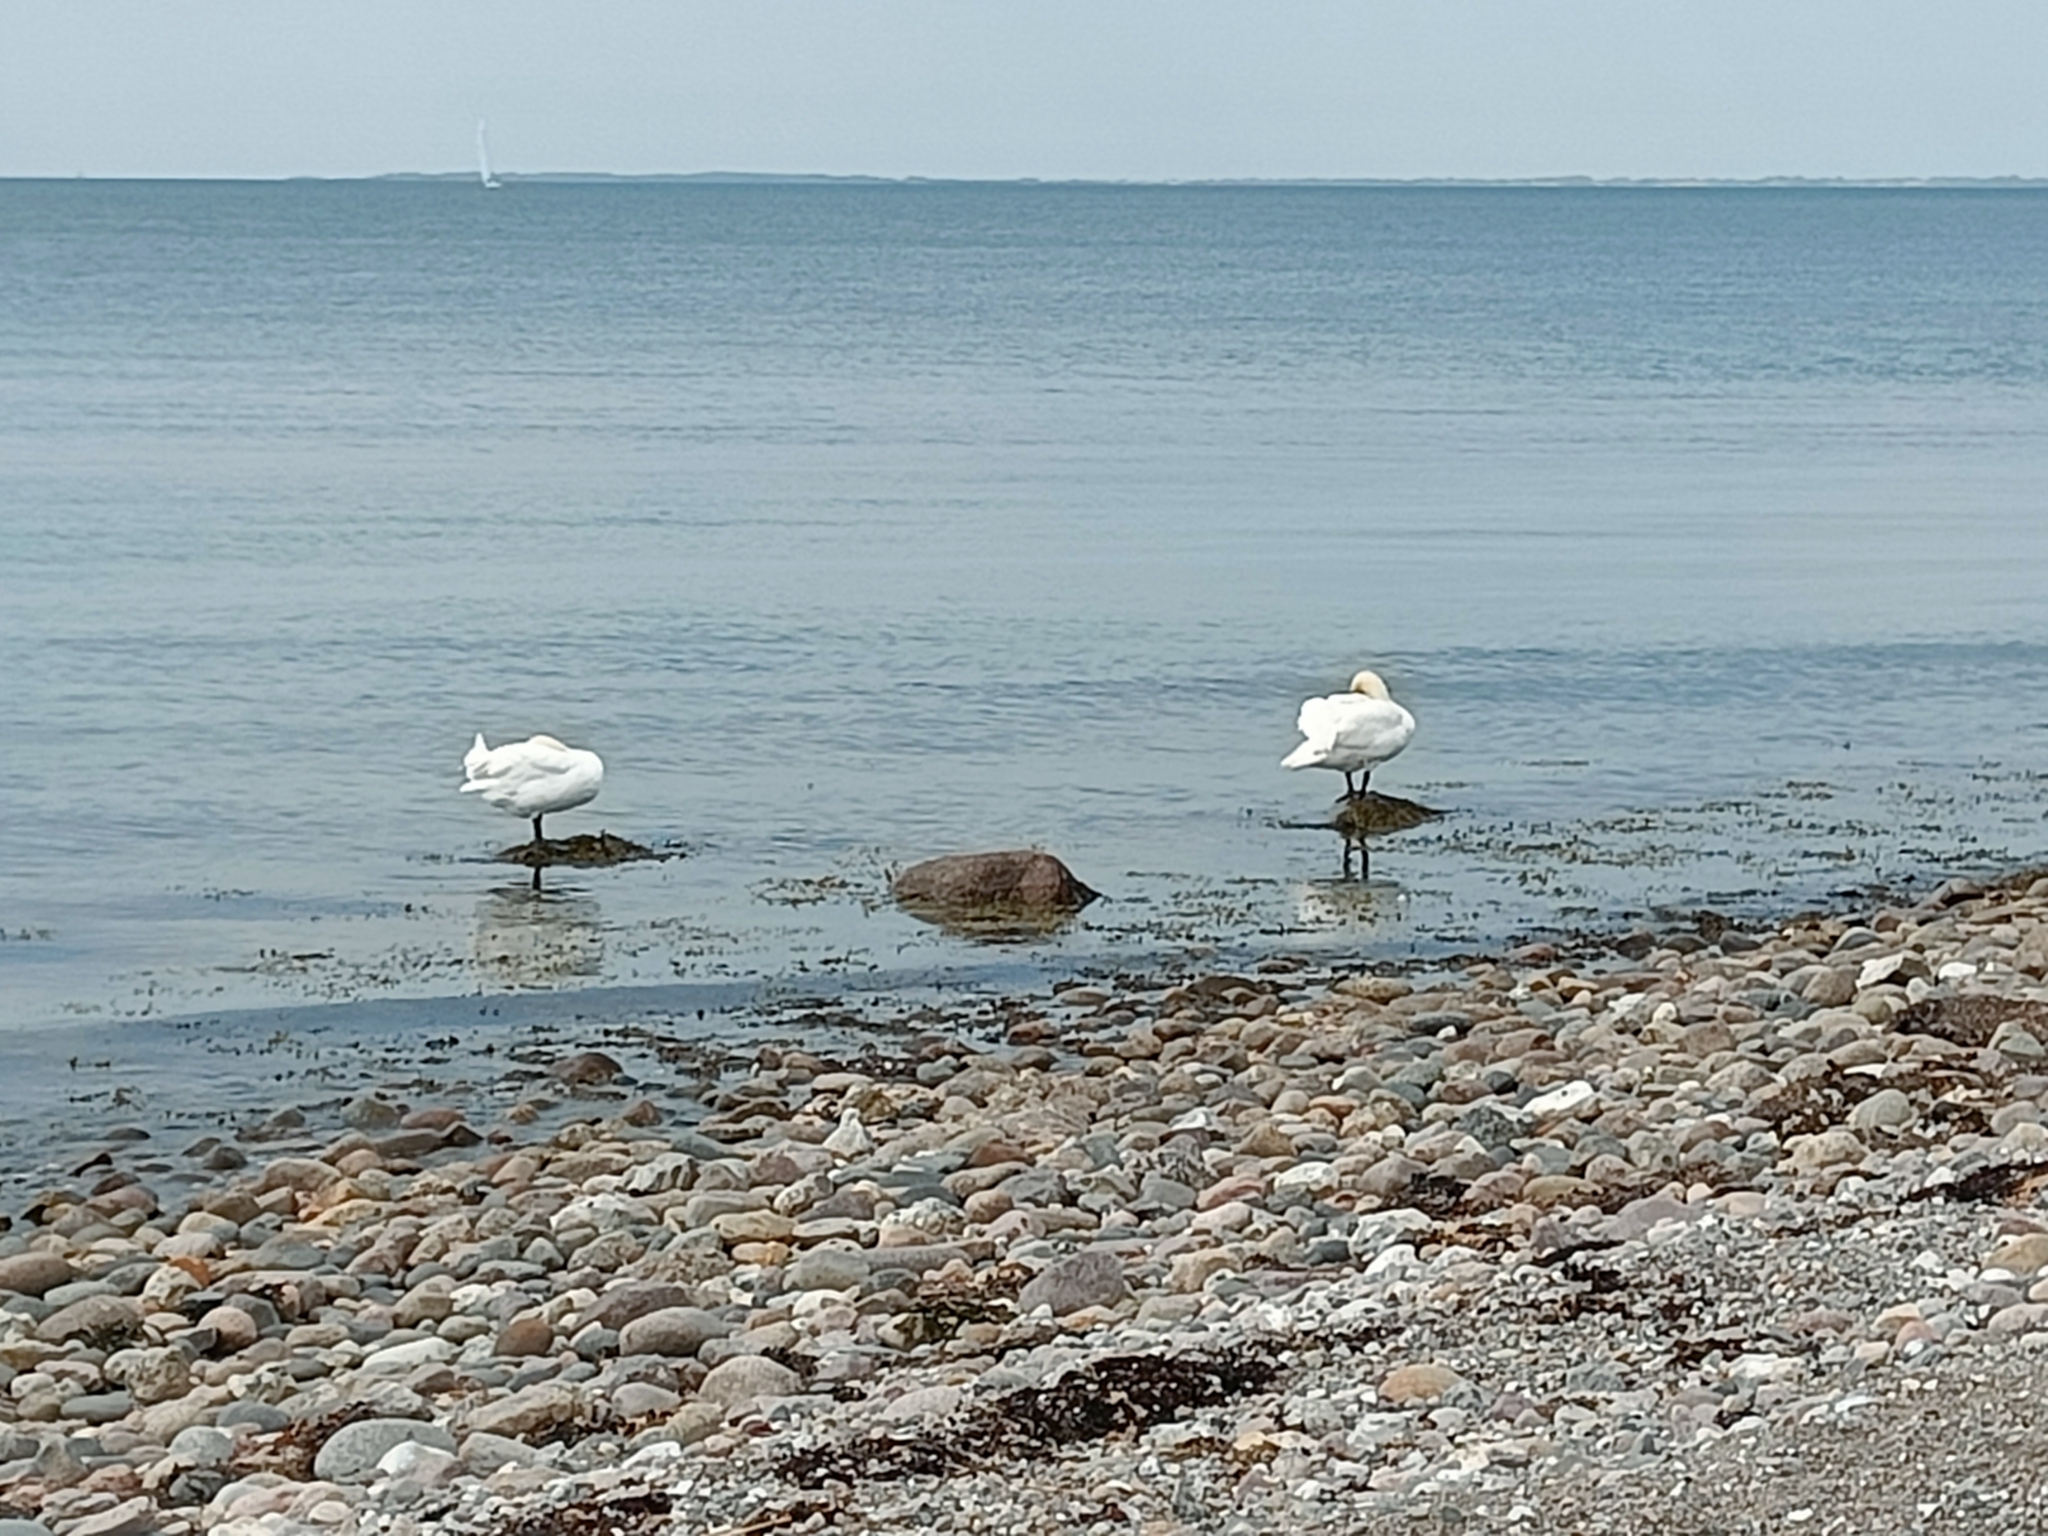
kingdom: Animalia
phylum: Chordata
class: Aves
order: Anseriformes
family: Anatidae
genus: Cygnus
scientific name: Cygnus olor
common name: Mute swan
